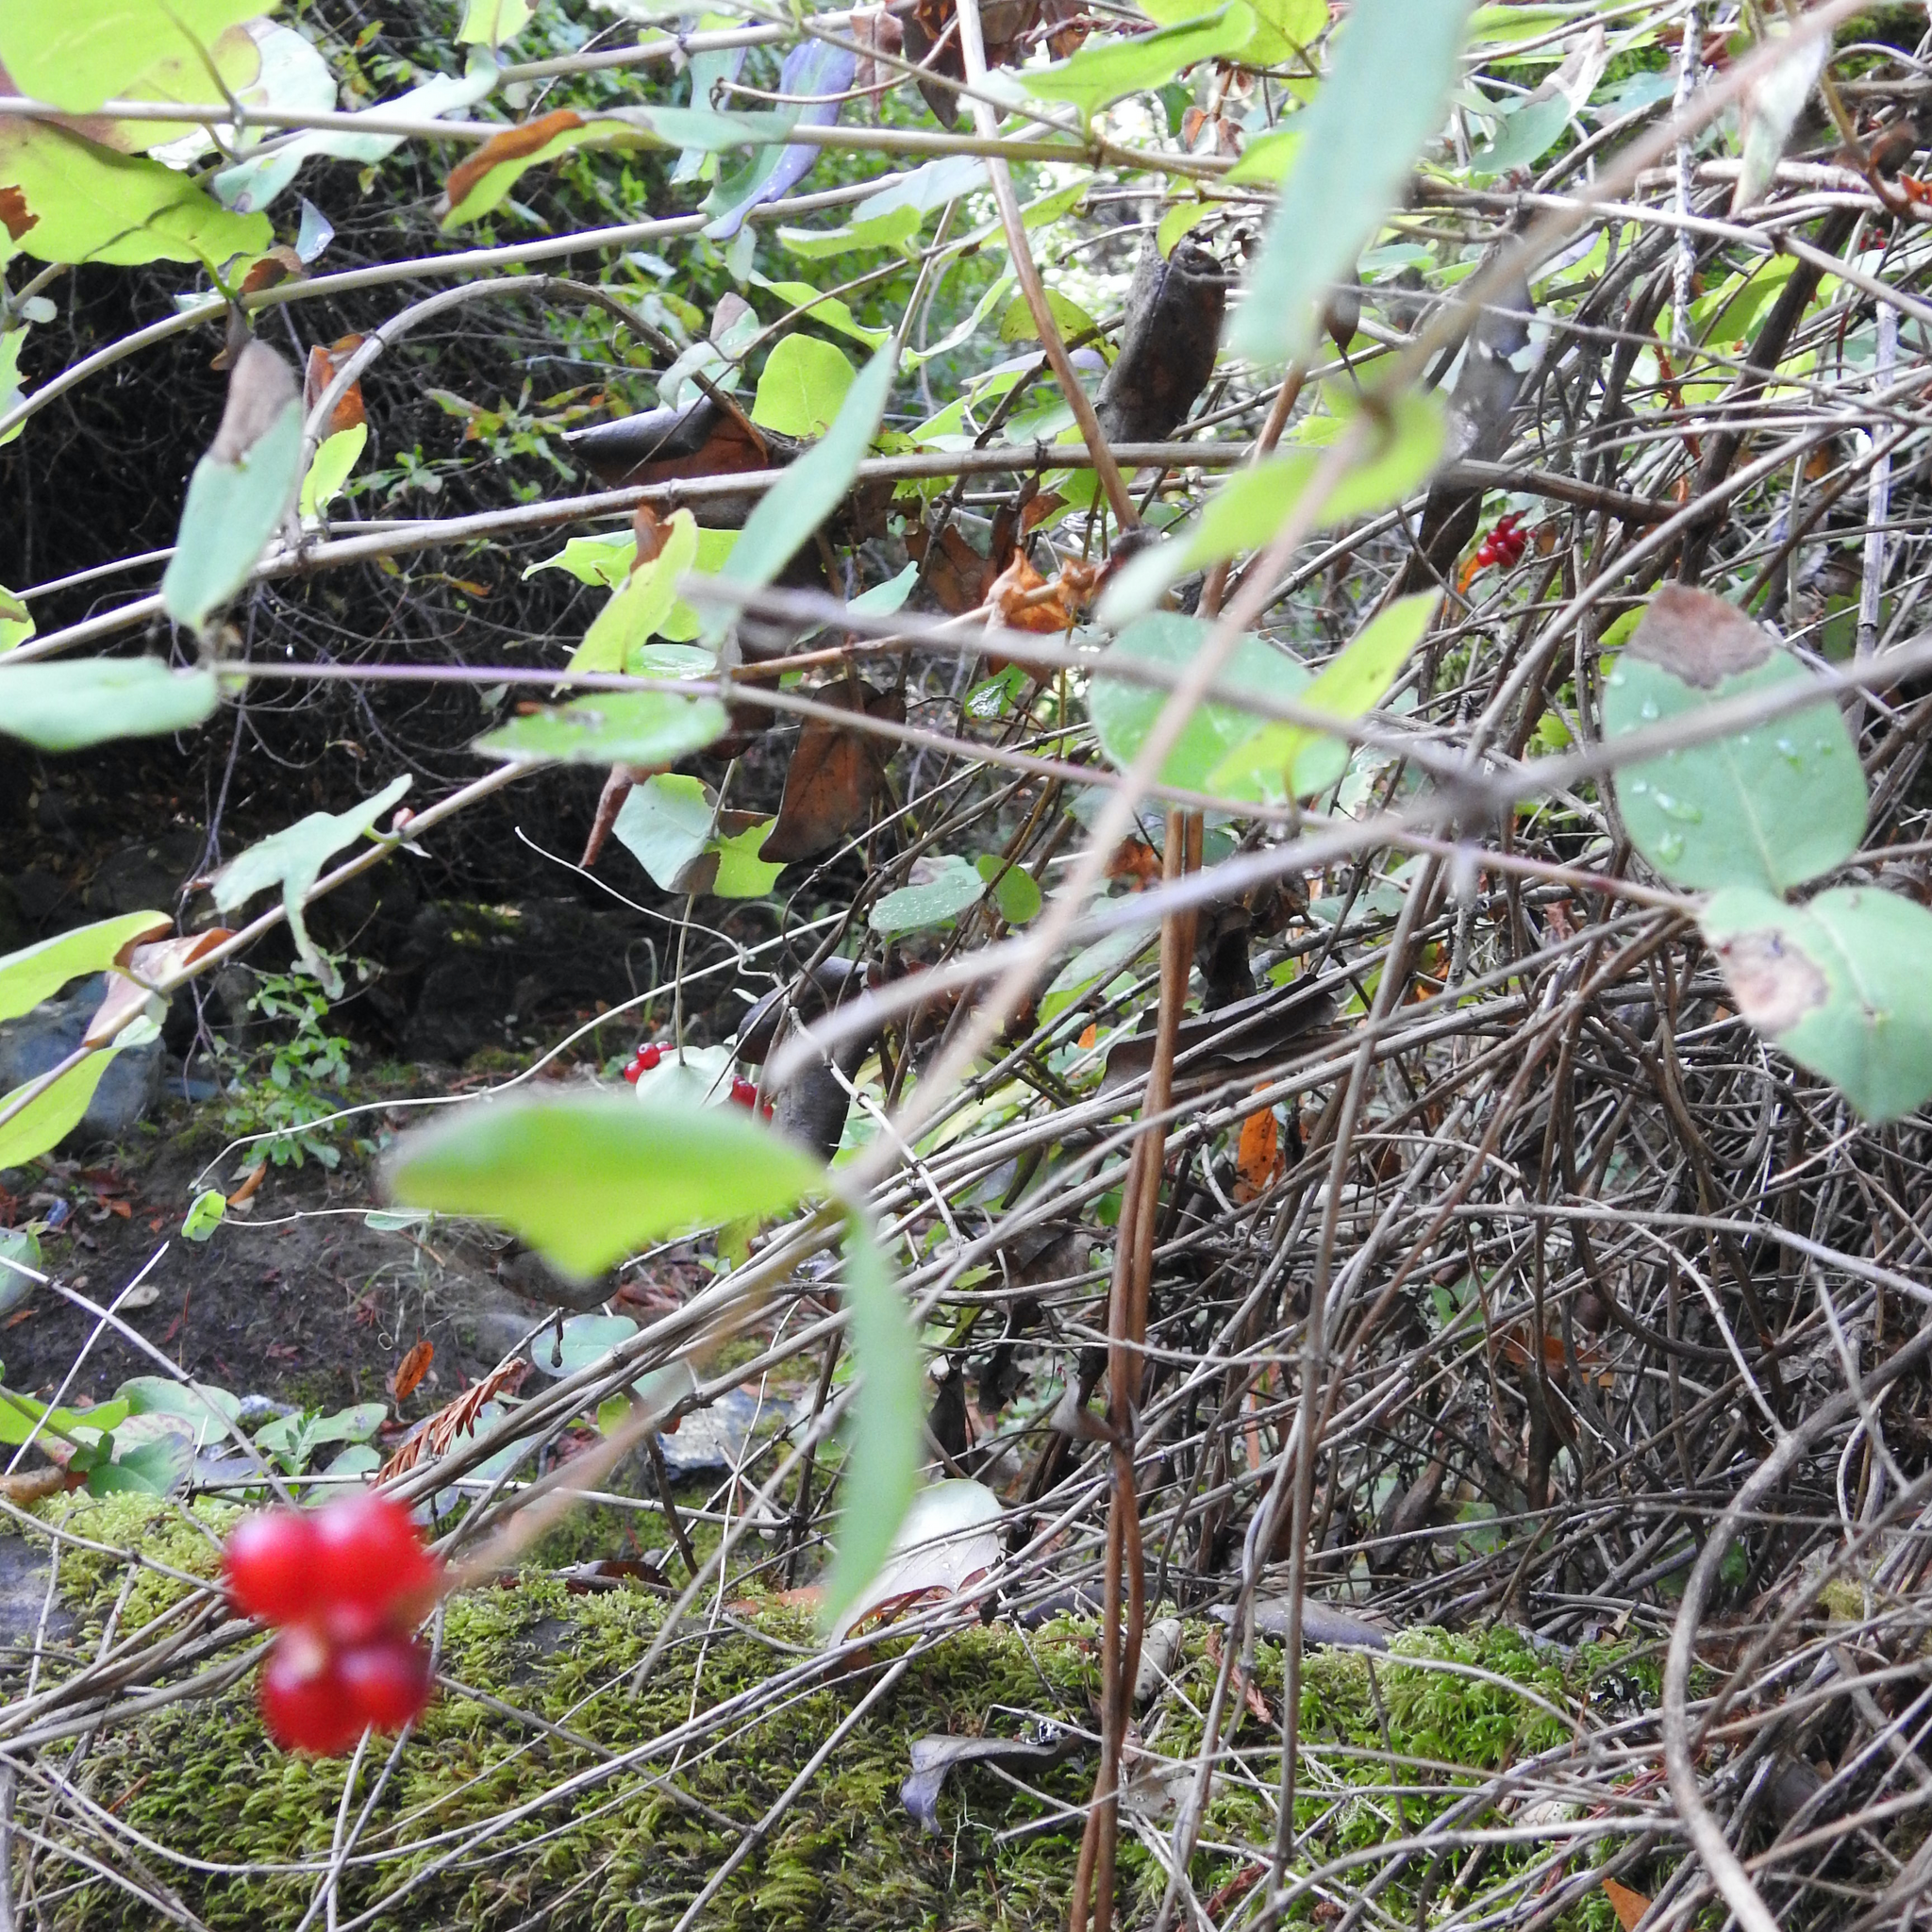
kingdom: Plantae
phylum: Tracheophyta
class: Magnoliopsida
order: Dipsacales
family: Caprifoliaceae
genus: Lonicera
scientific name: Lonicera hispidula
